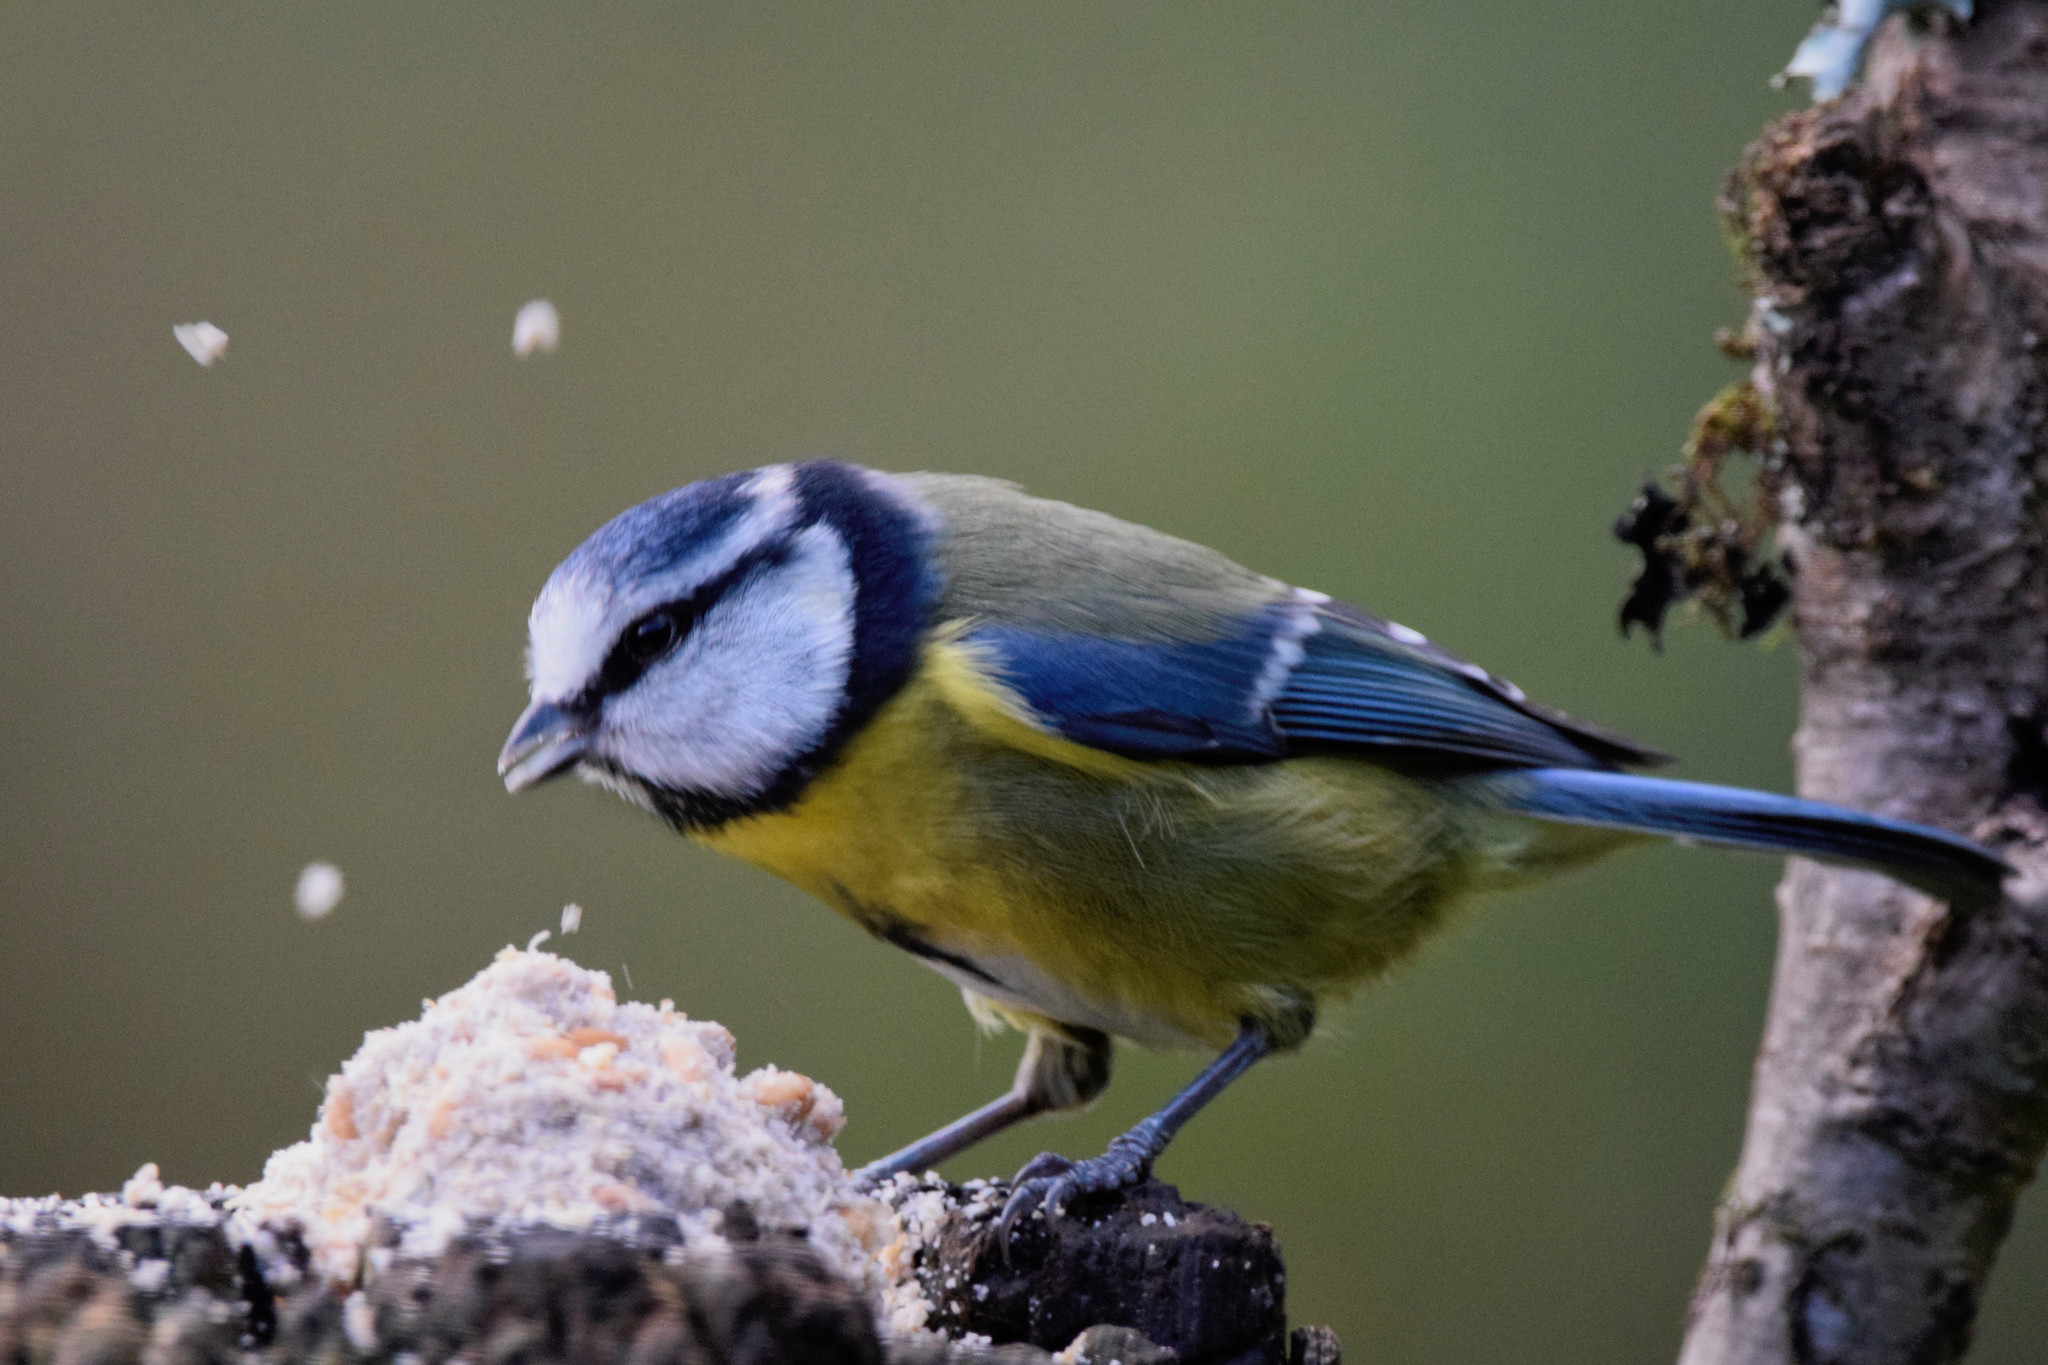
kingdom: Animalia
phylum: Chordata
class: Aves
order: Passeriformes
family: Paridae
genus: Cyanistes
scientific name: Cyanistes caeruleus
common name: Eurasian blue tit
